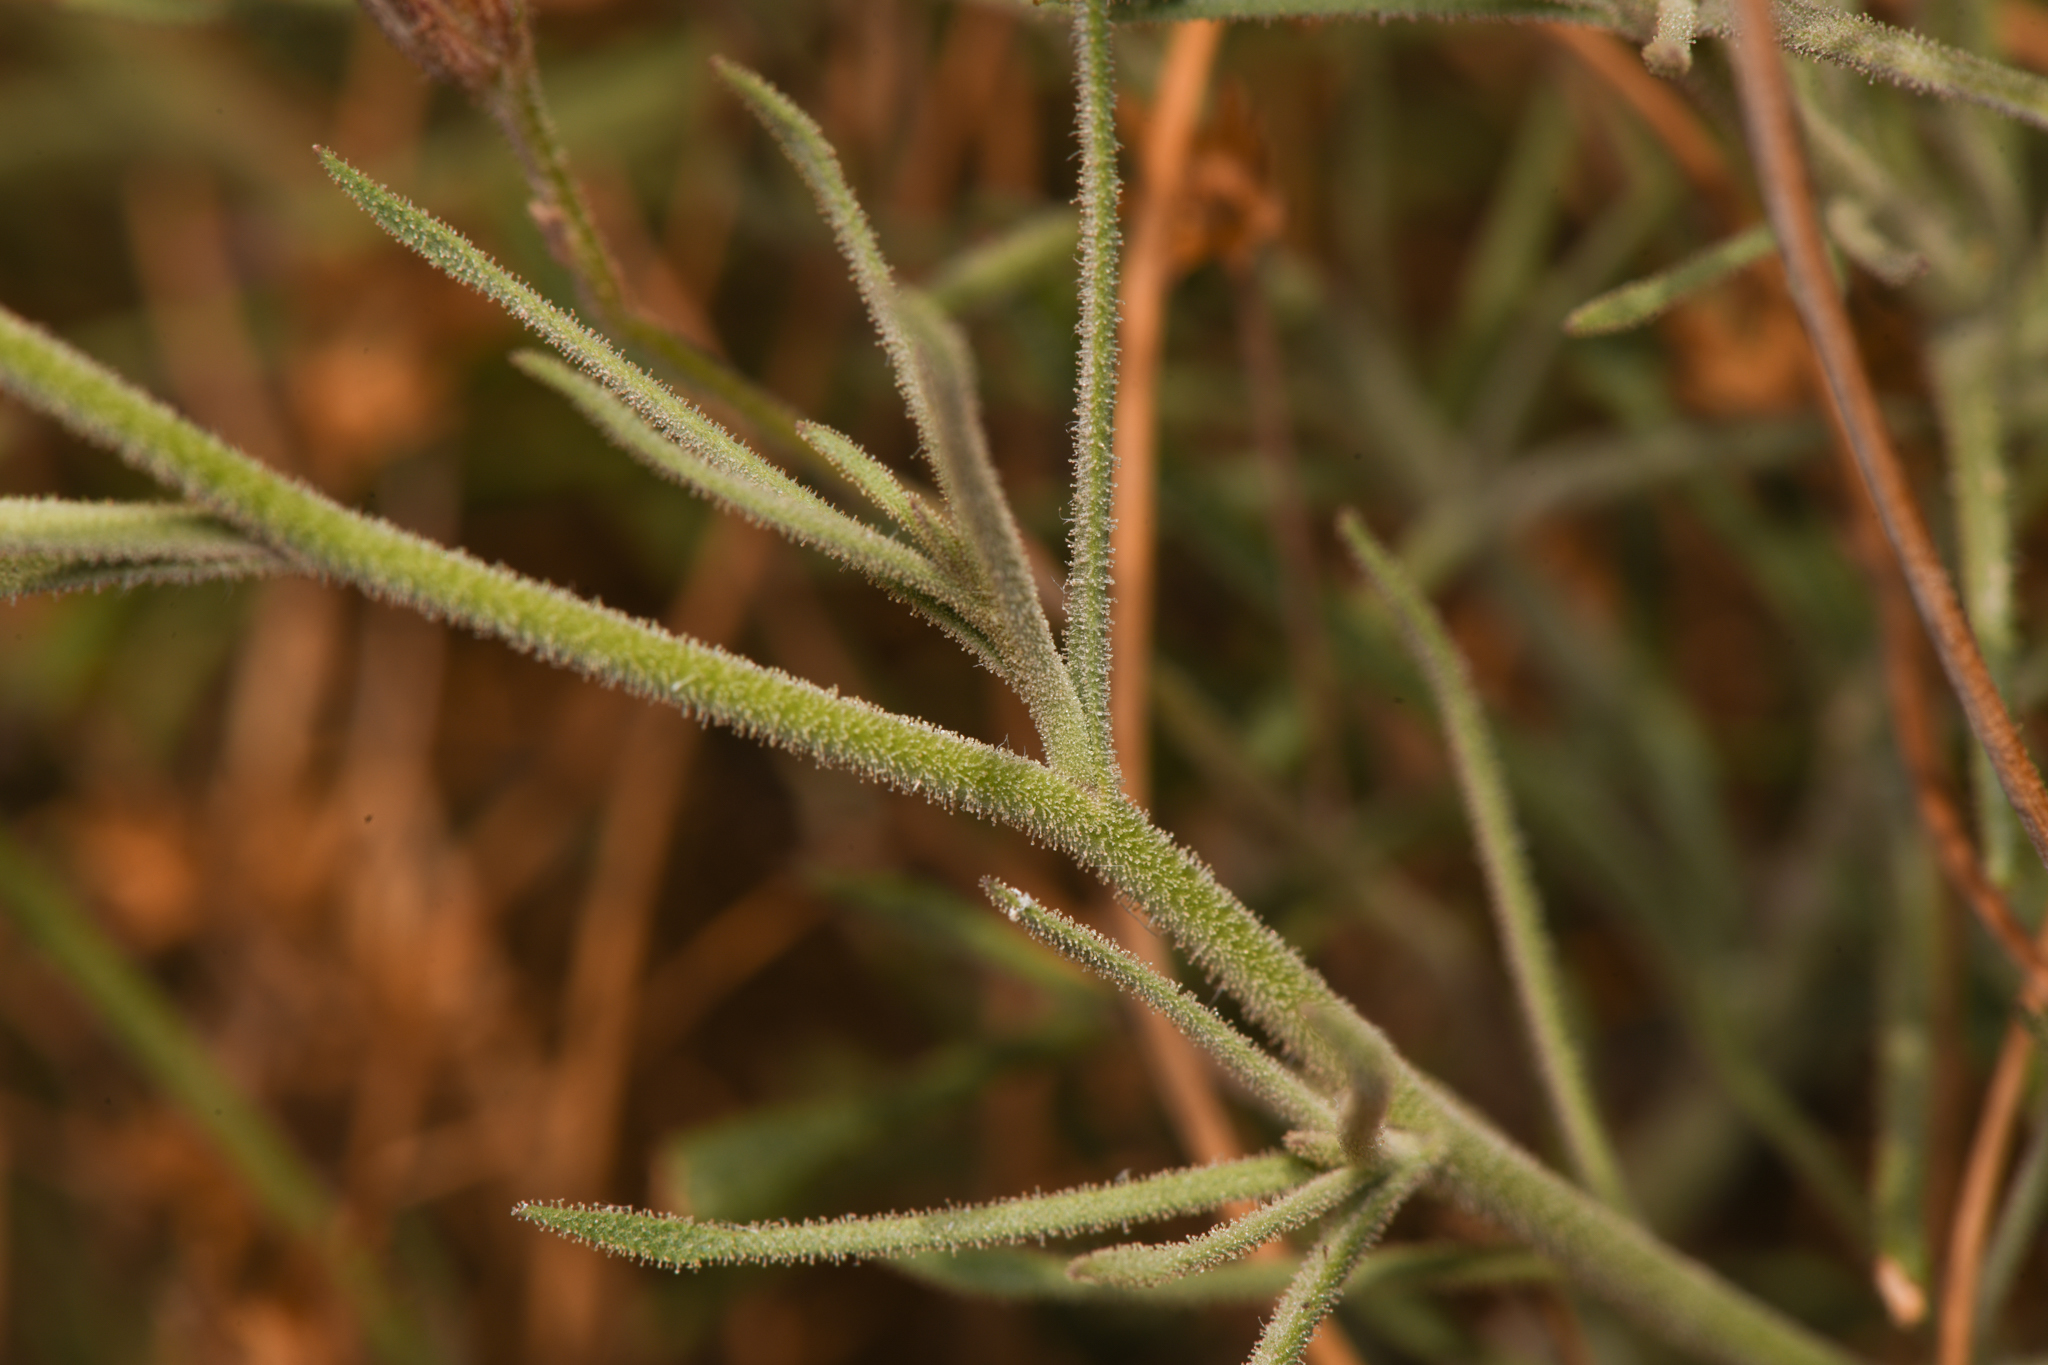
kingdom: Plantae
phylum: Tracheophyta
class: Magnoliopsida
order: Asterales
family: Asteraceae
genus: Pleurocoronis
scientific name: Pleurocoronis pluriseta
